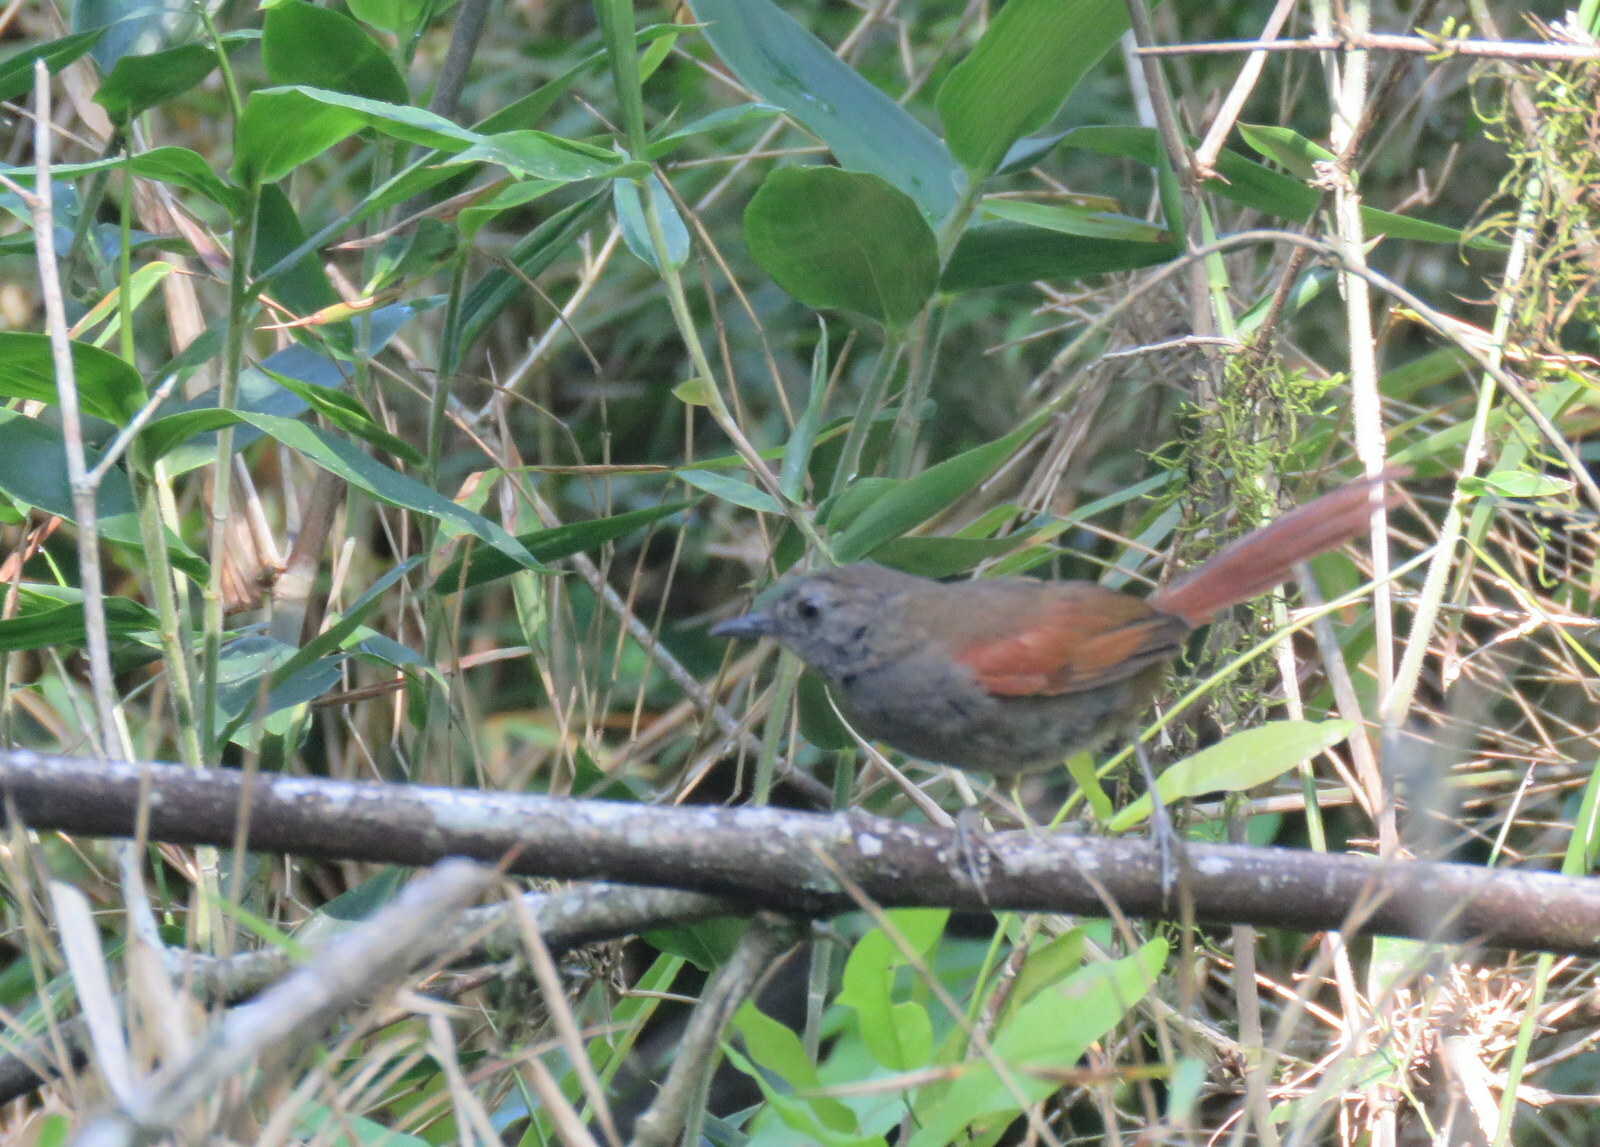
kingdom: Animalia
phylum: Chordata
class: Aves
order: Passeriformes
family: Furnariidae
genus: Synallaxis
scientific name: Synallaxis cinerascens
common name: Grey-bellied spinetail
